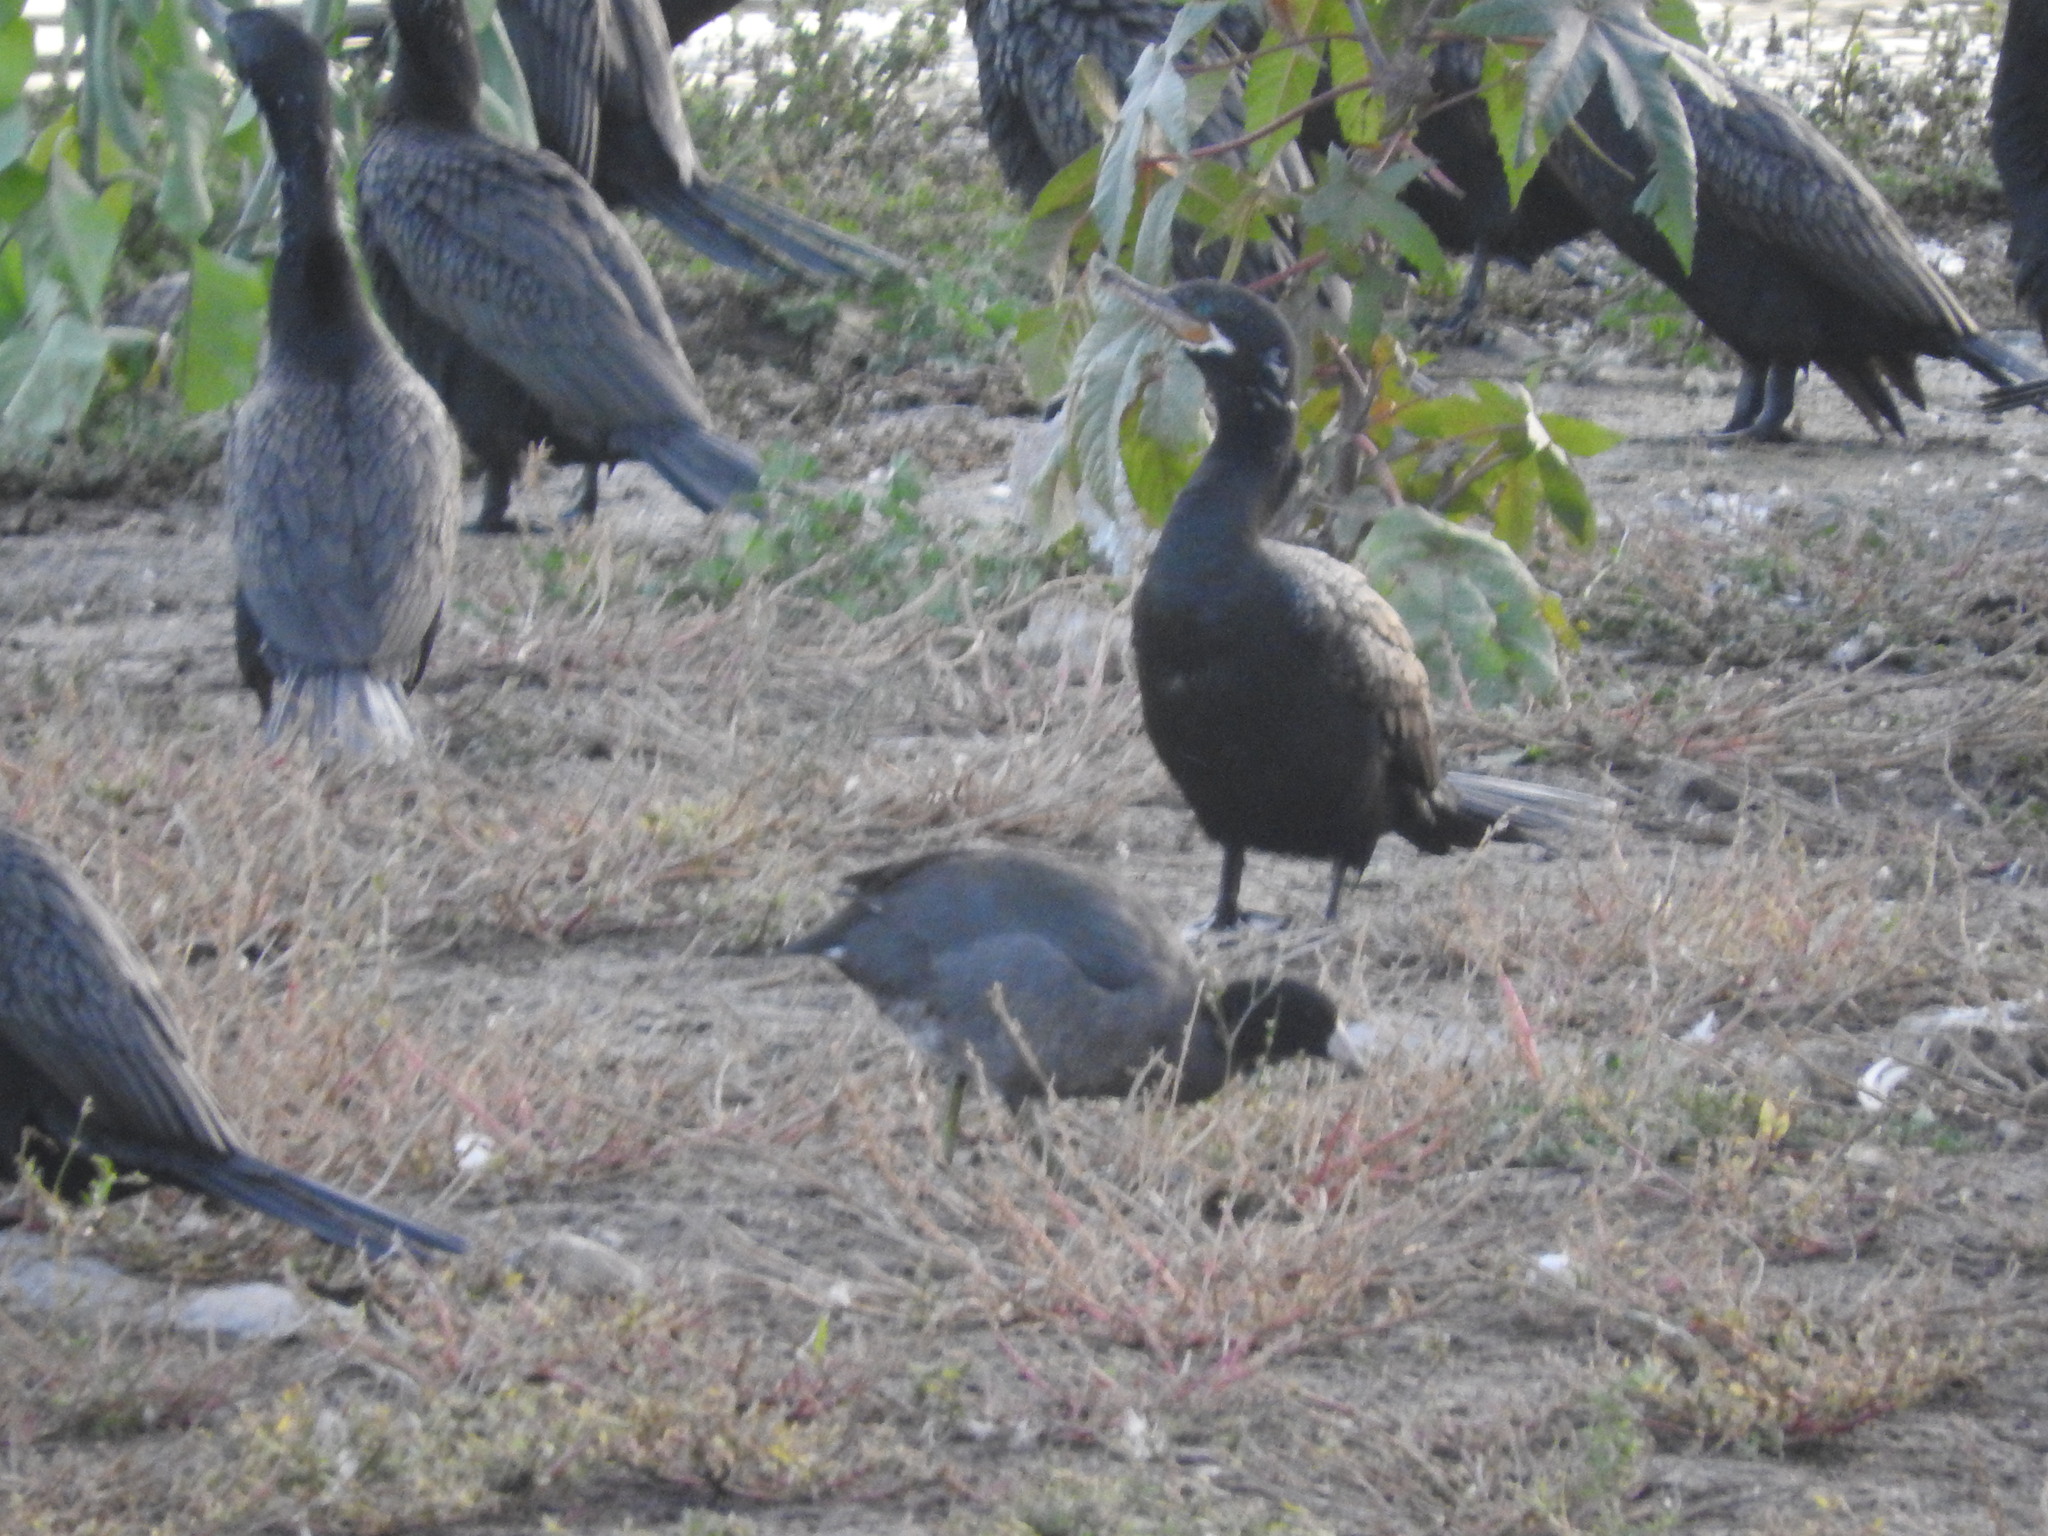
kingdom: Animalia
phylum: Chordata
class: Aves
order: Gruiformes
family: Rallidae
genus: Fulica
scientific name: Fulica americana
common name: American coot
